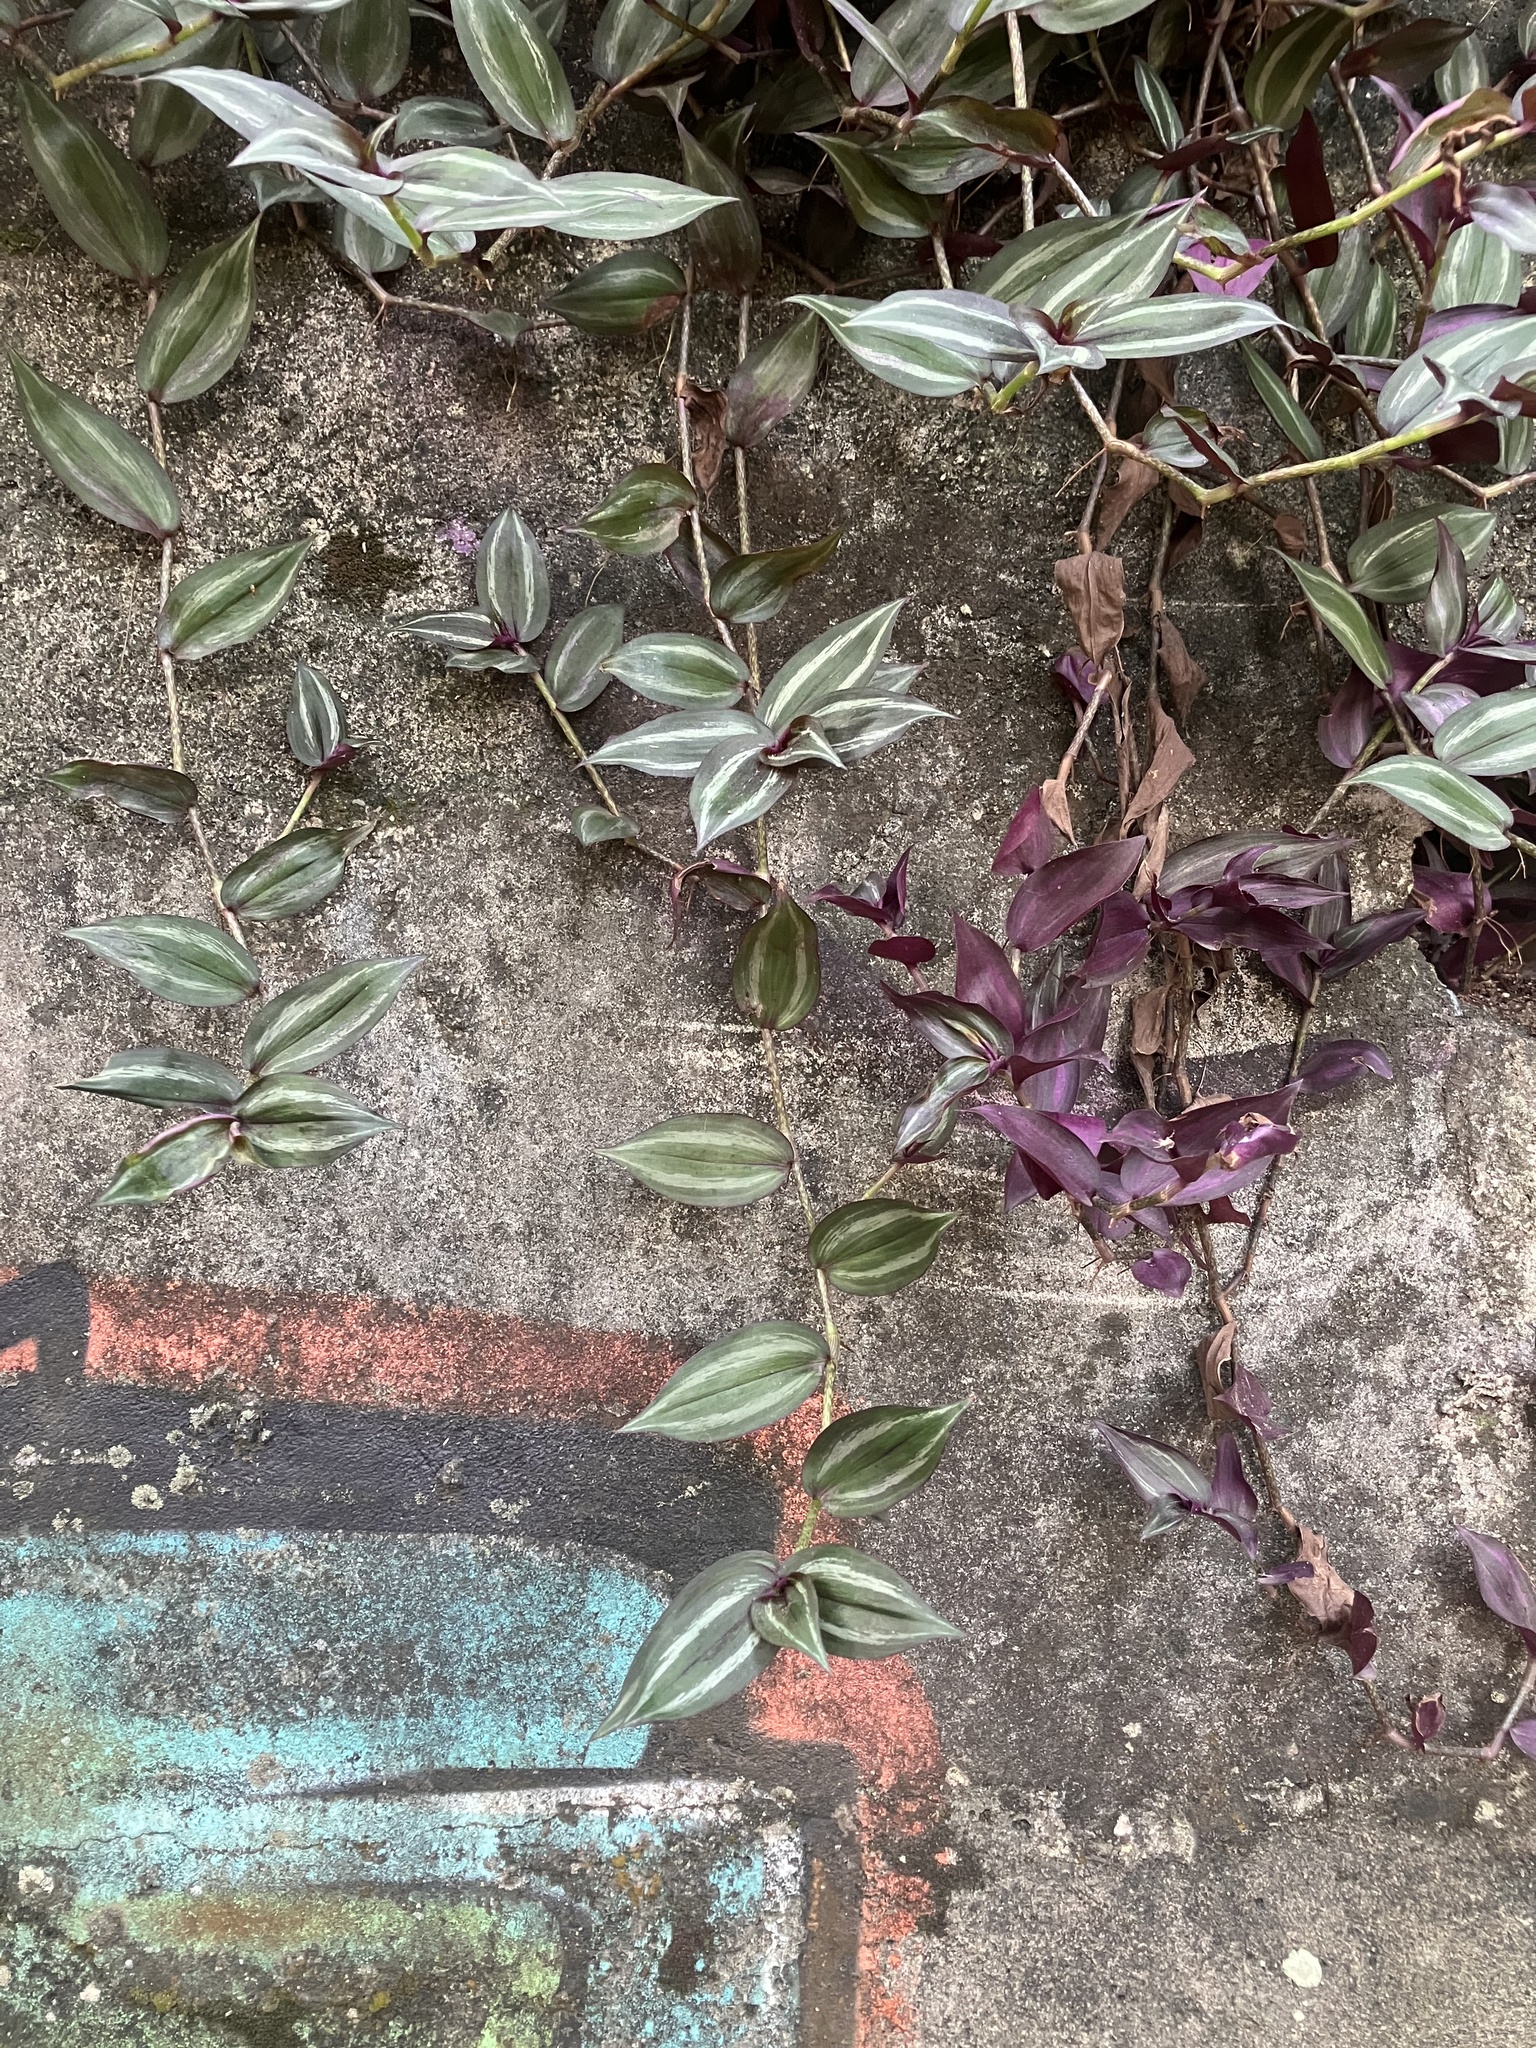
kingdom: Plantae
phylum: Tracheophyta
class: Liliopsida
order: Commelinales
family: Commelinaceae
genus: Tradescantia
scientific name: Tradescantia zebrina
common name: Inchplant
